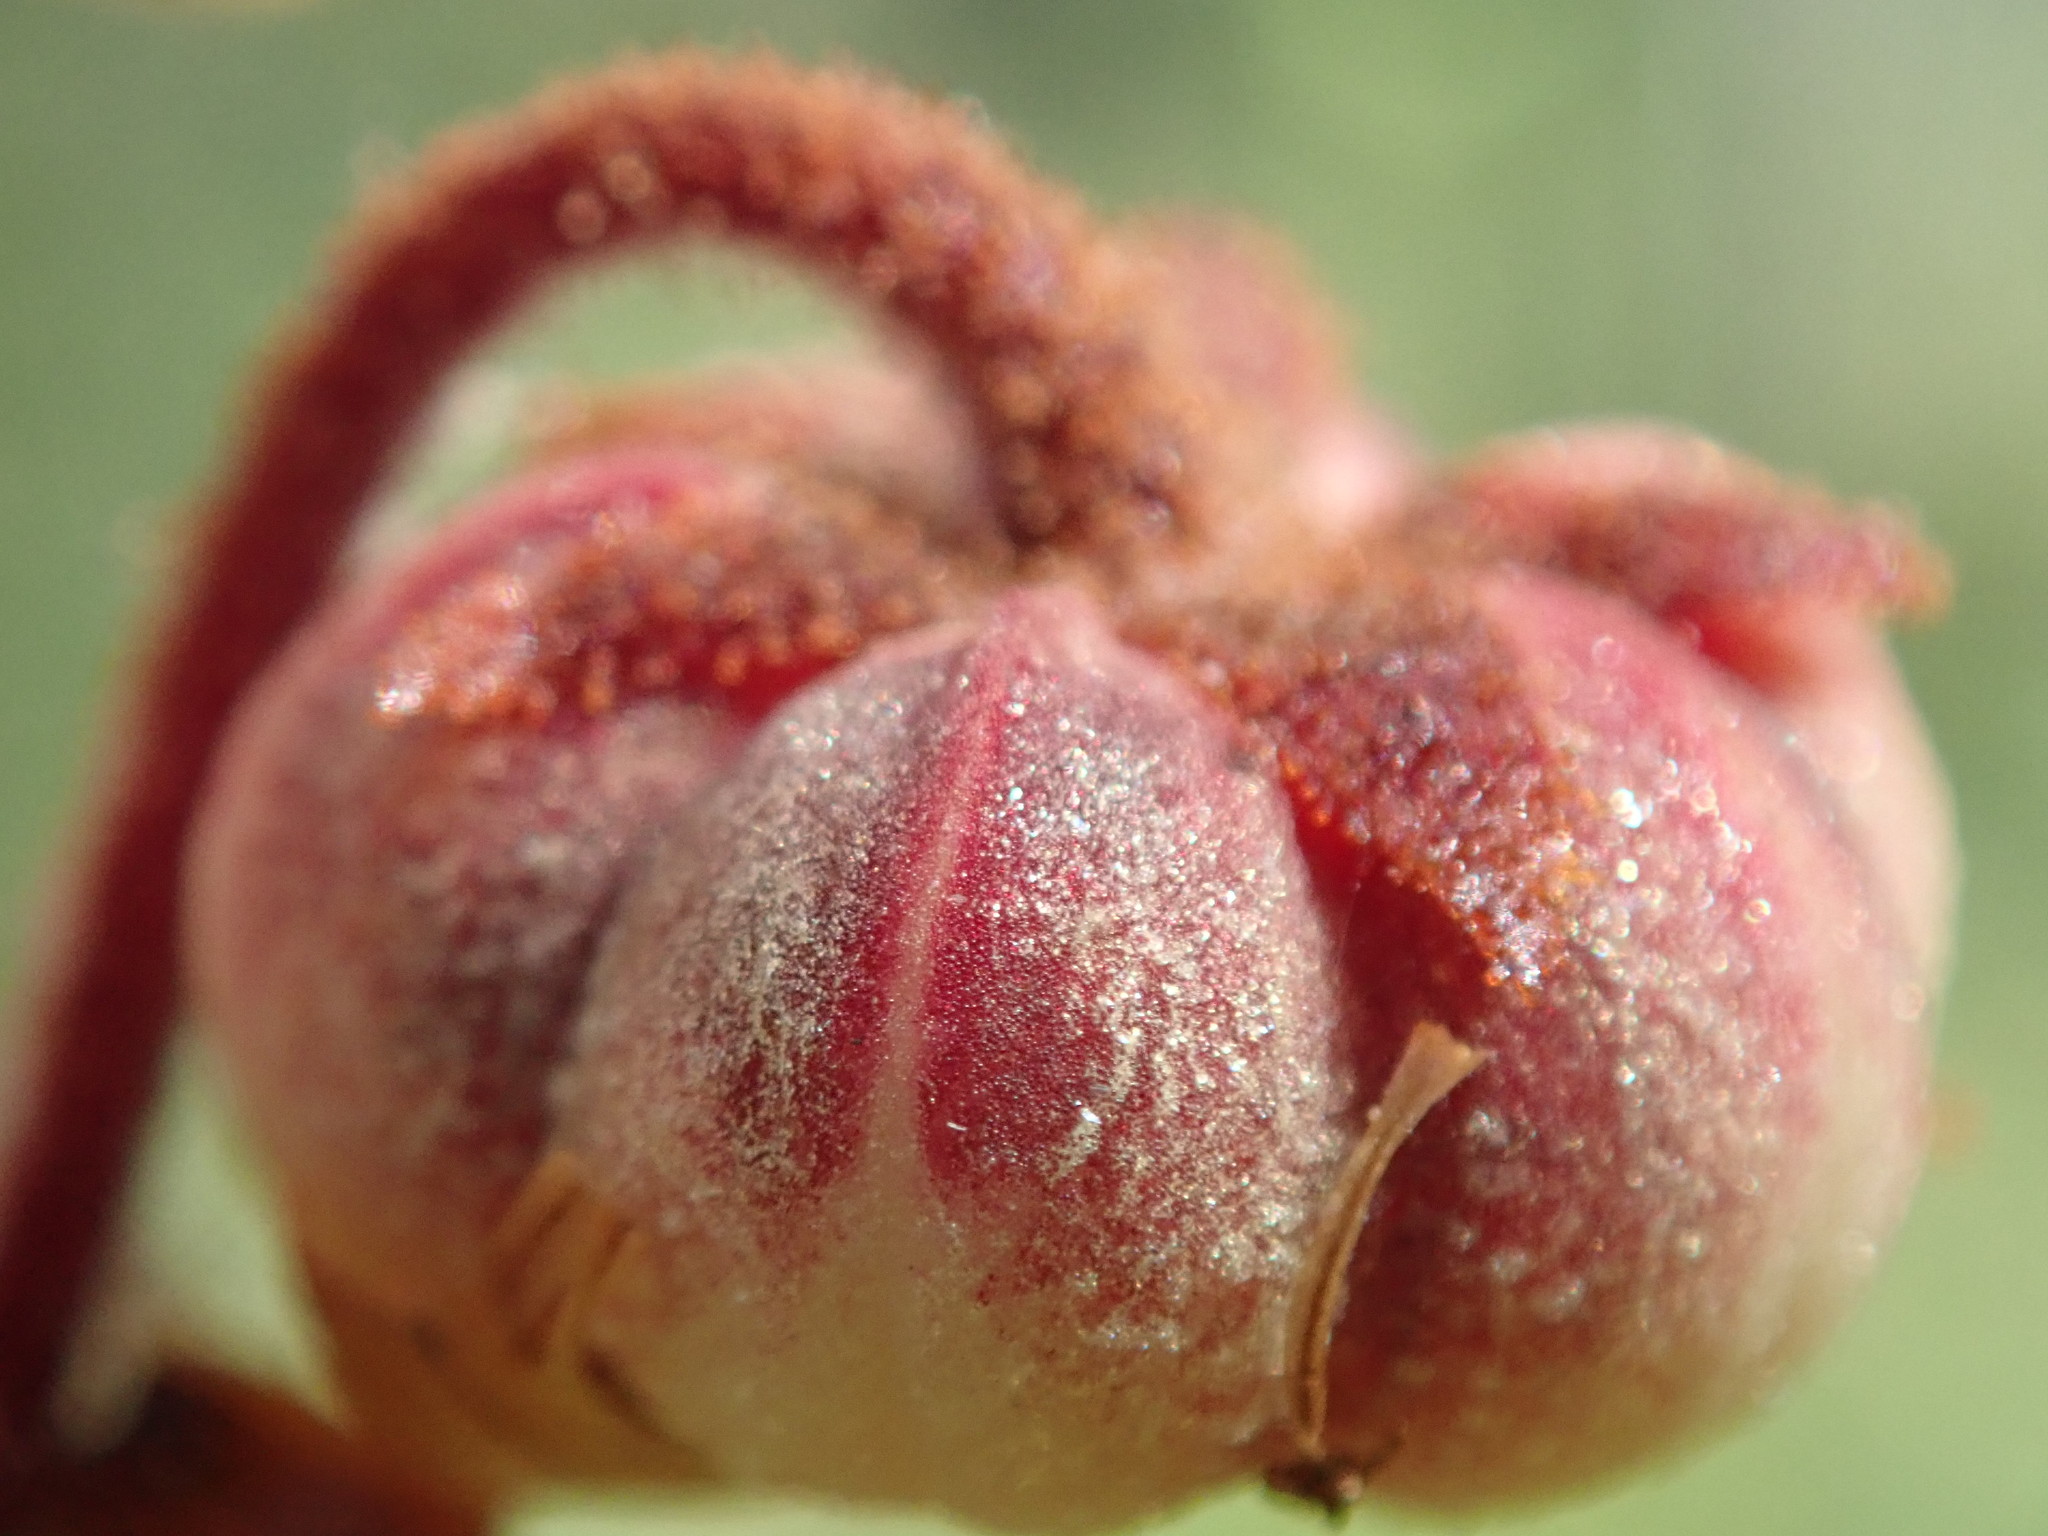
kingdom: Plantae
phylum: Tracheophyta
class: Magnoliopsida
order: Ericales
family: Ericaceae
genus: Pterospora
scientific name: Pterospora andromedea
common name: Giant bird's-nest
